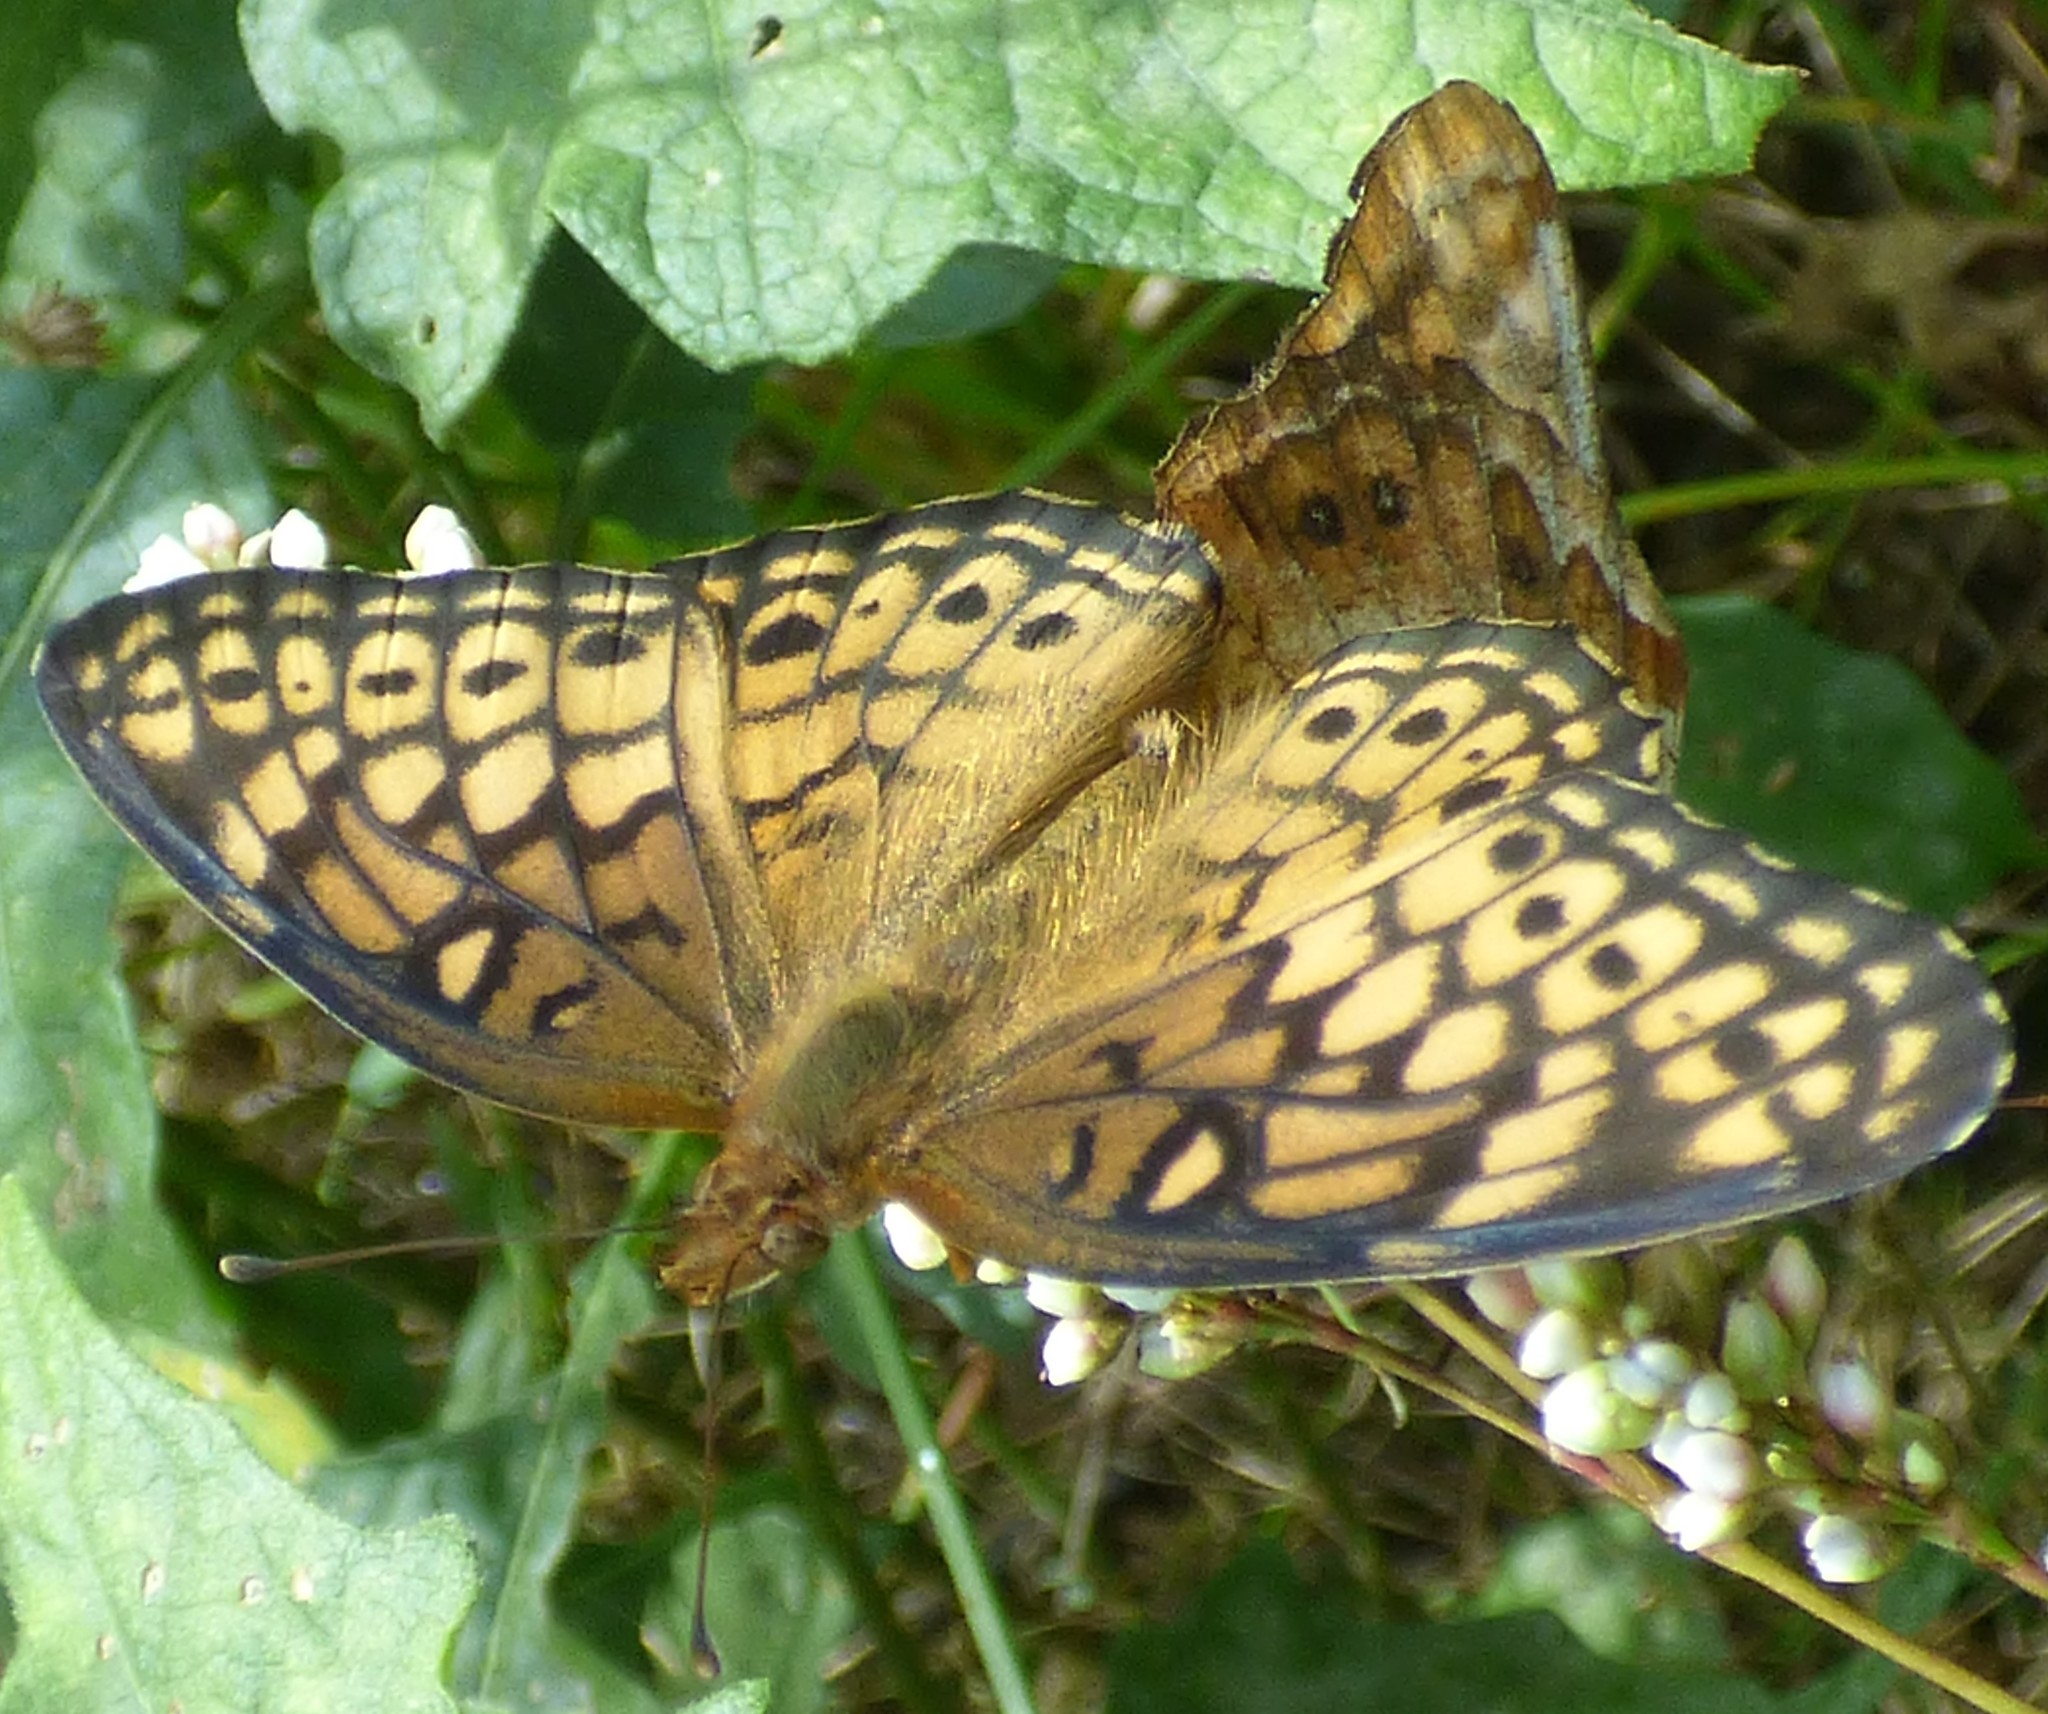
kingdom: Animalia
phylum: Arthropoda
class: Insecta
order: Lepidoptera
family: Nymphalidae
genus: Euptoieta
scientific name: Euptoieta claudia
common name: Variegated fritillary
